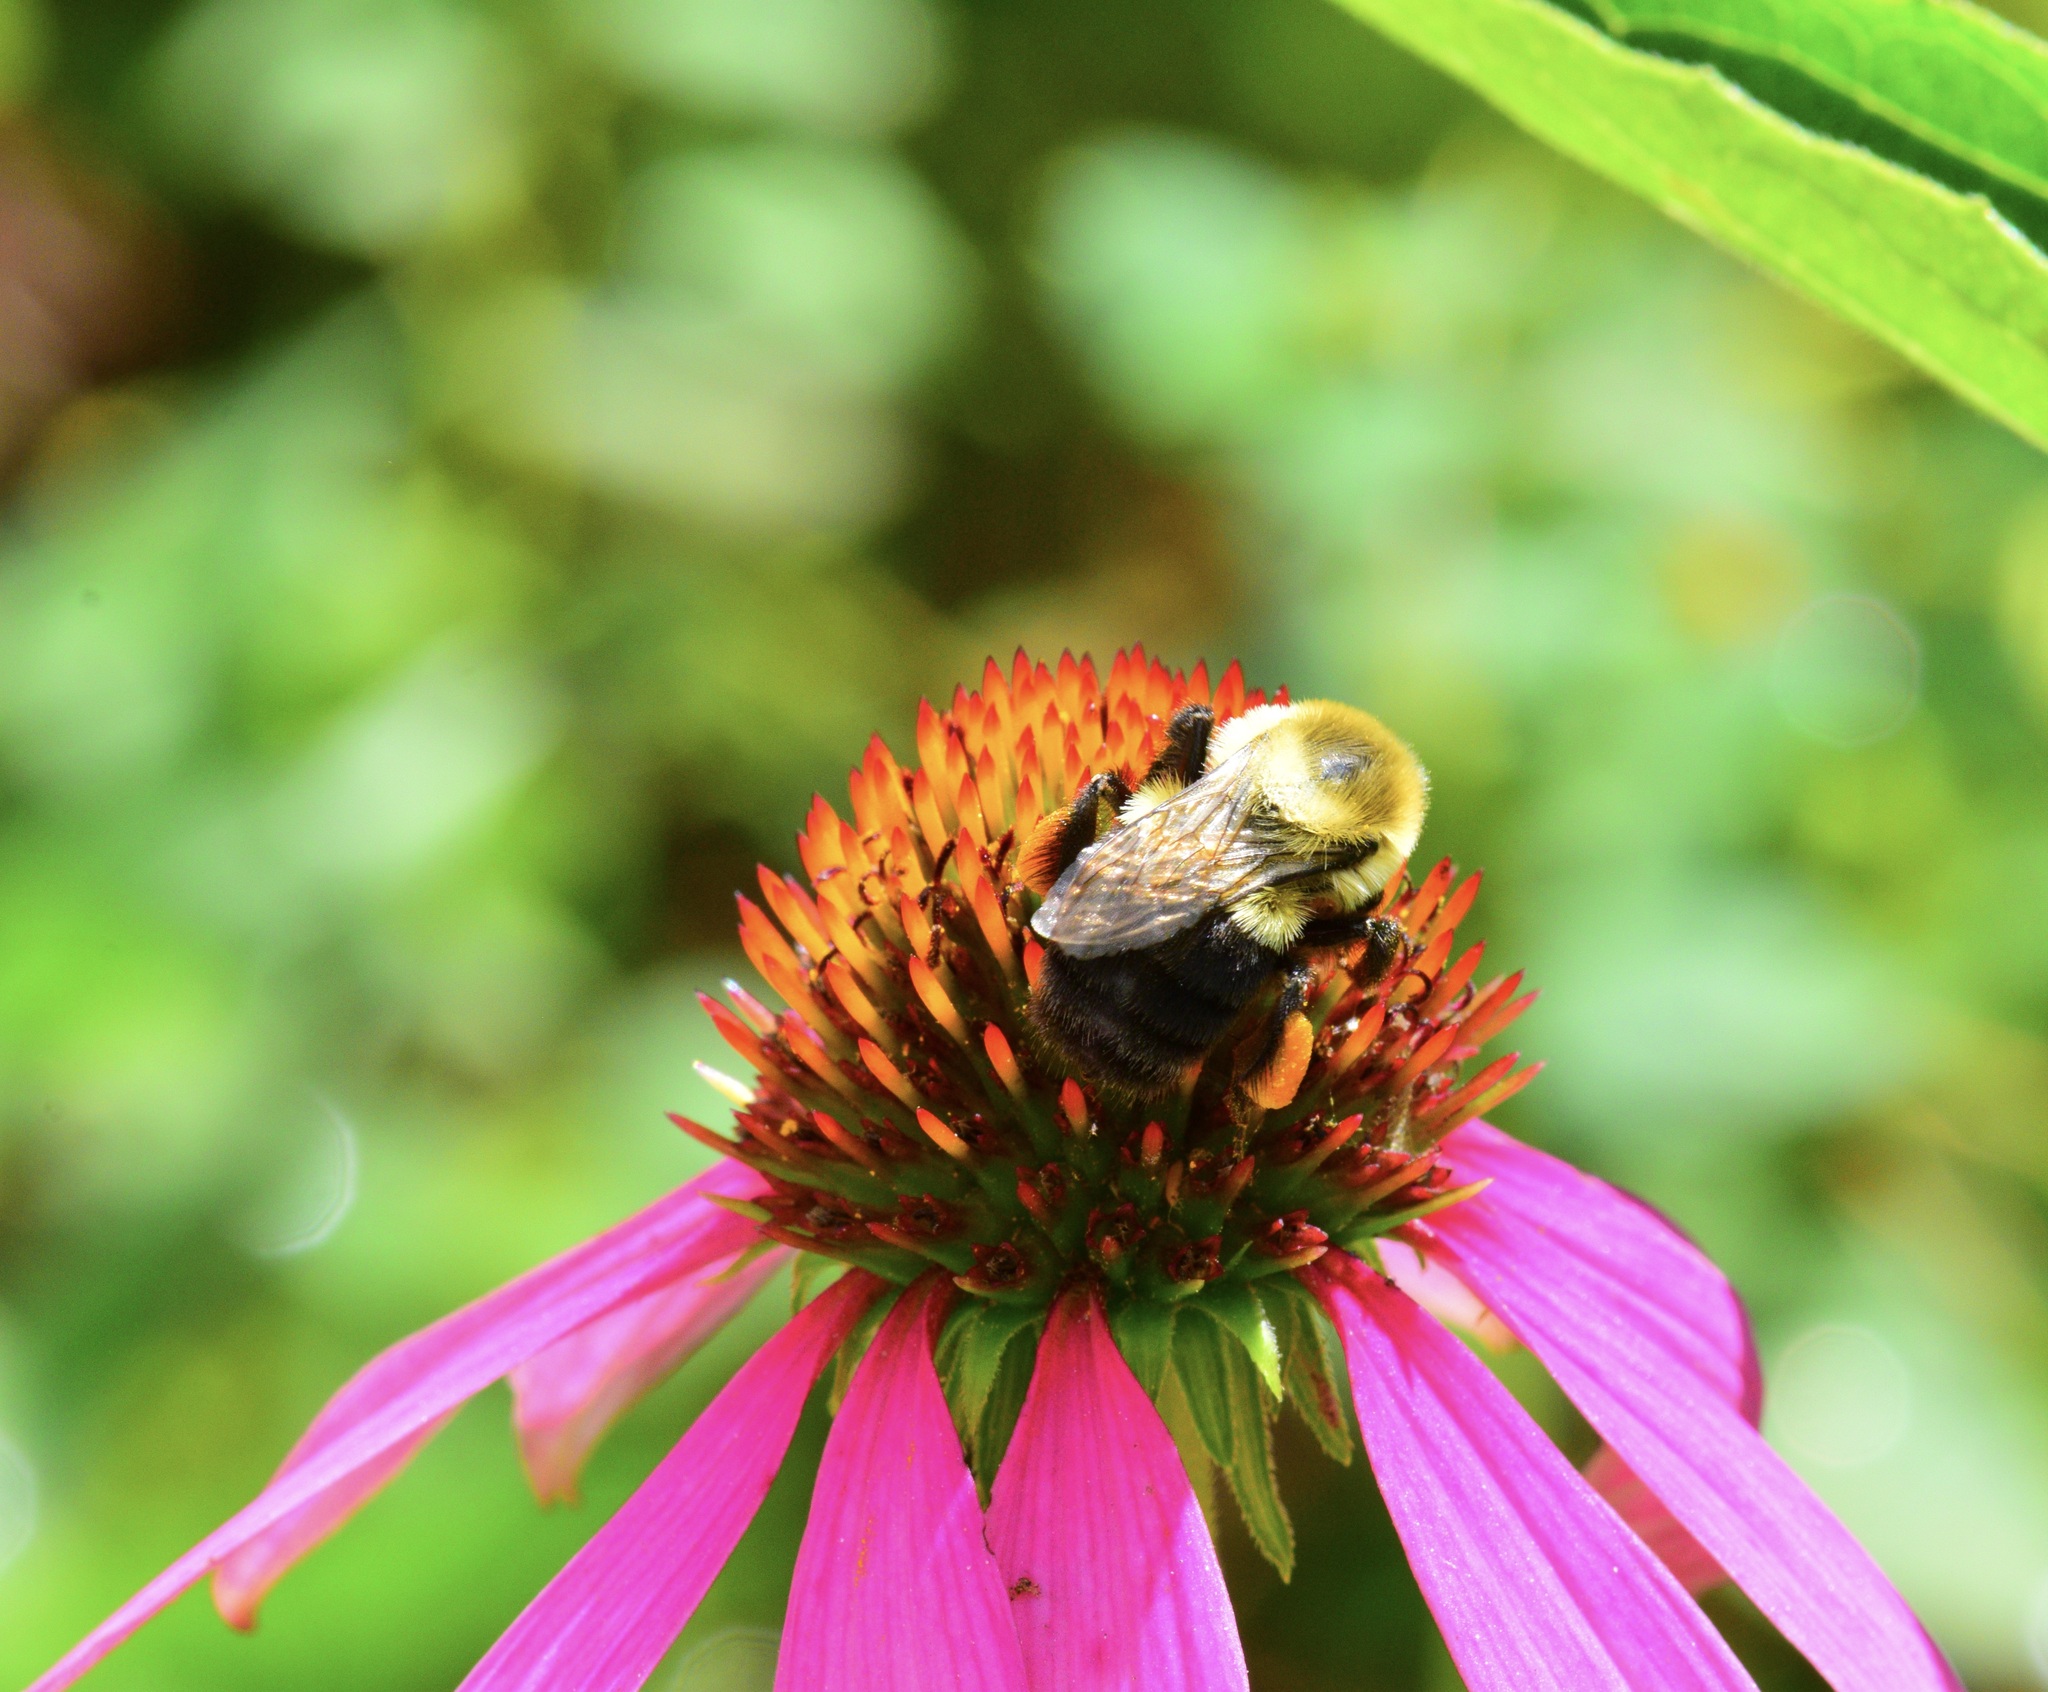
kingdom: Animalia
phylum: Arthropoda
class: Insecta
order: Hymenoptera
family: Apidae
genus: Bombus
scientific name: Bombus impatiens
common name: Common eastern bumble bee
